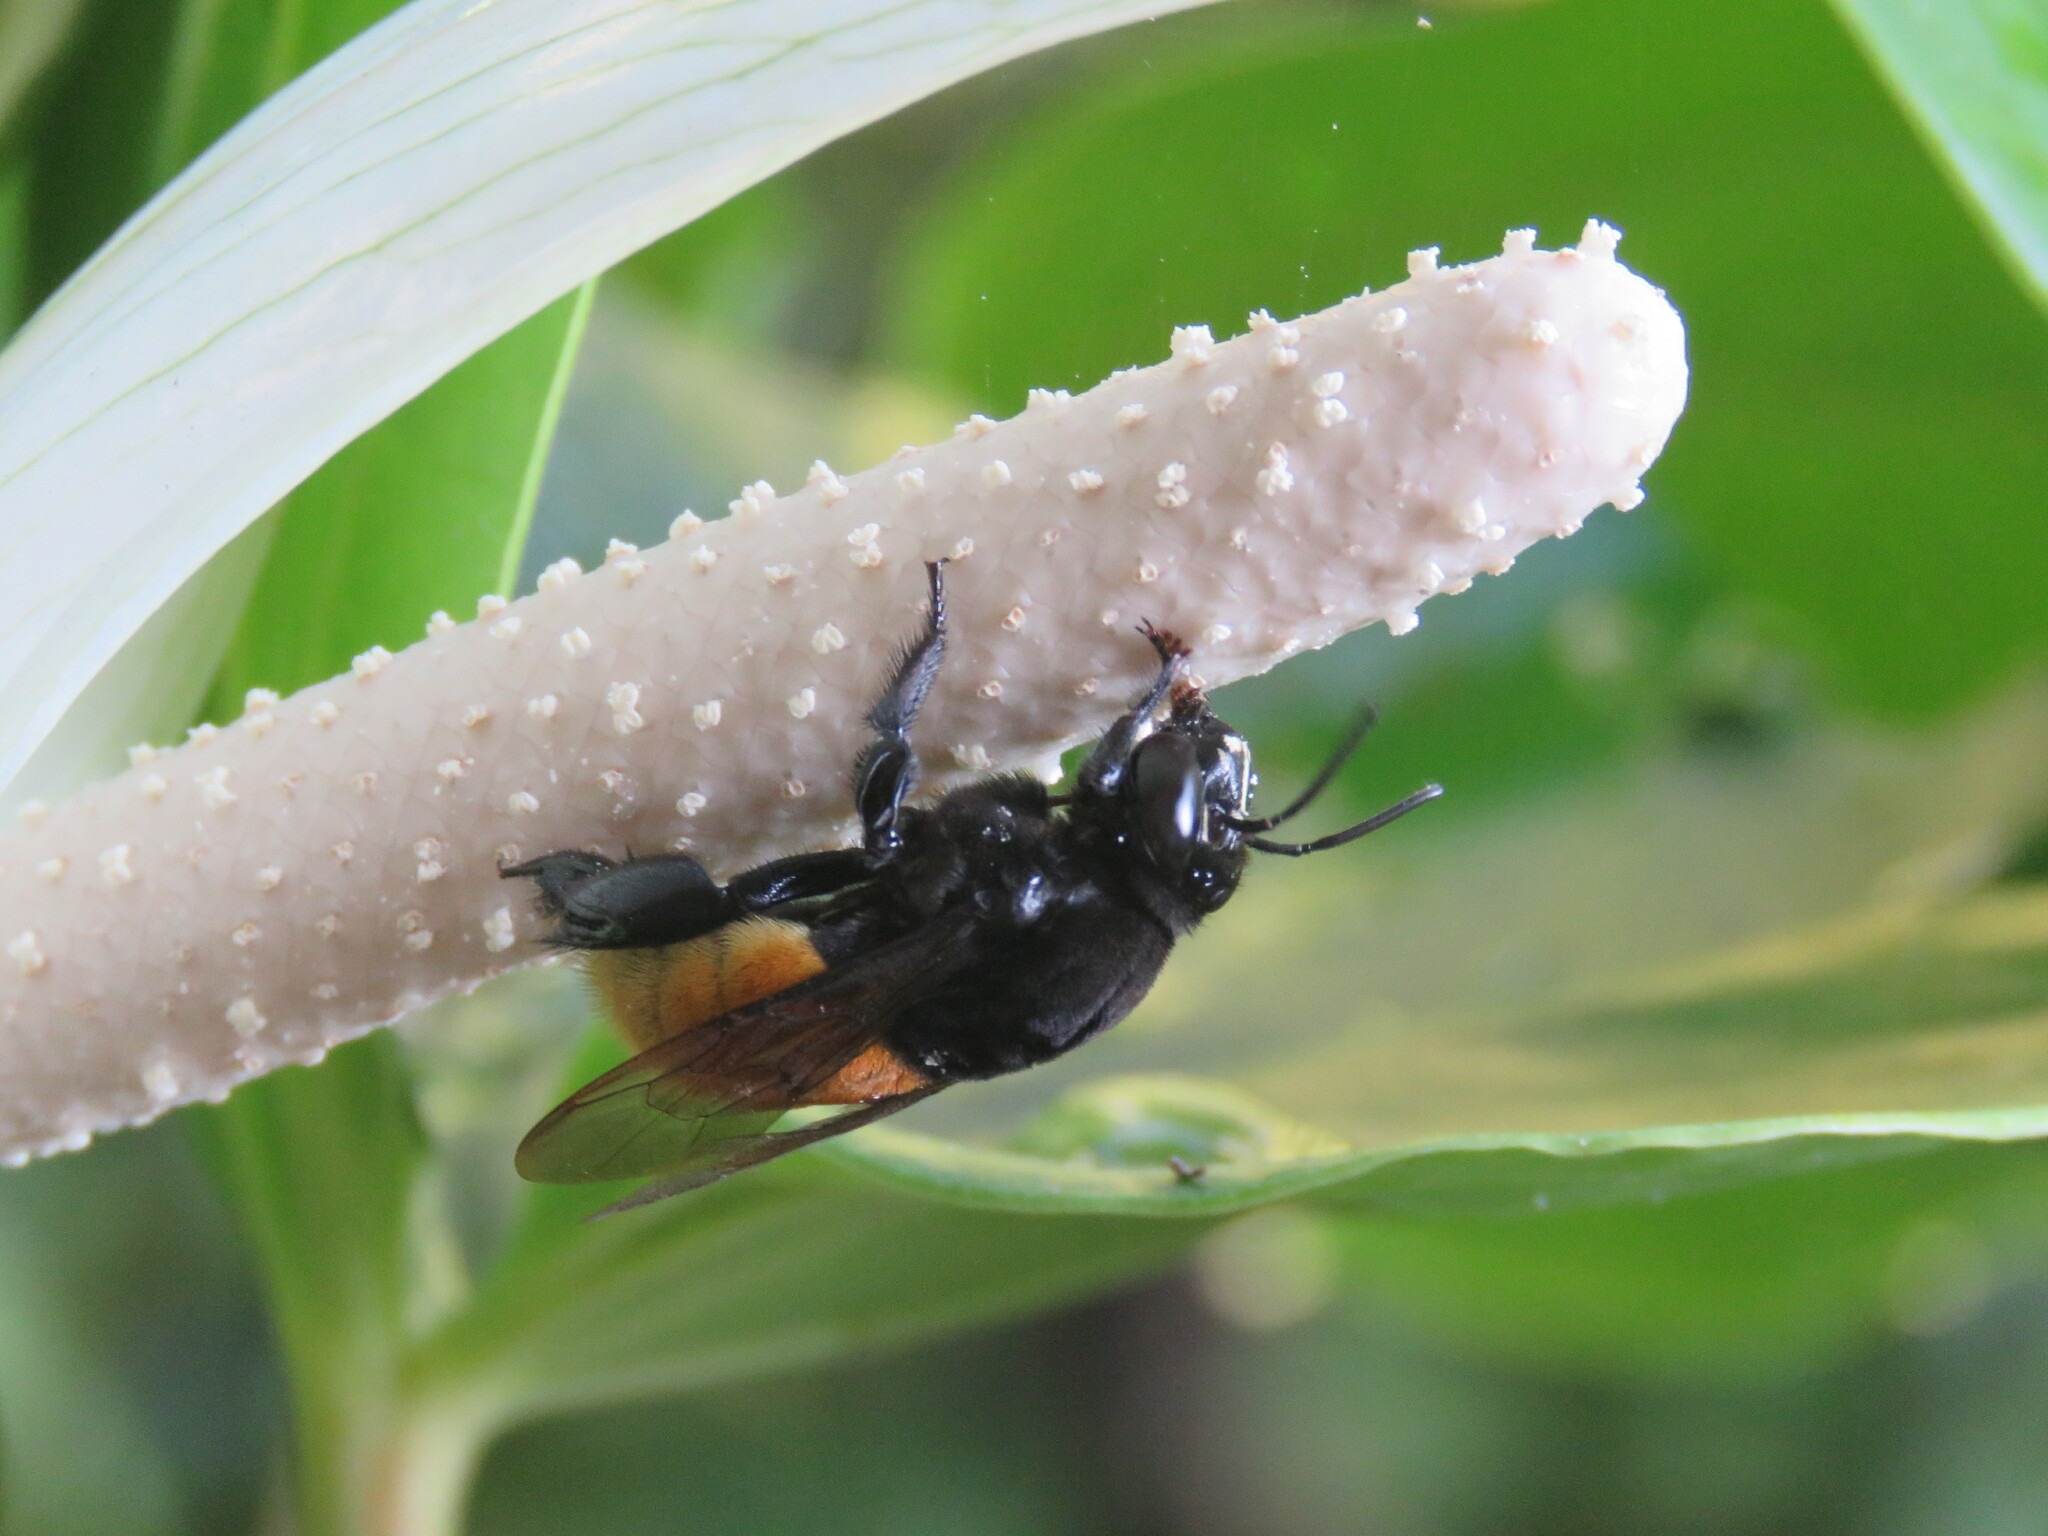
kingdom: Animalia
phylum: Arthropoda
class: Insecta
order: Hymenoptera
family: Apidae
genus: Eulaema
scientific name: Eulaema polychroma
